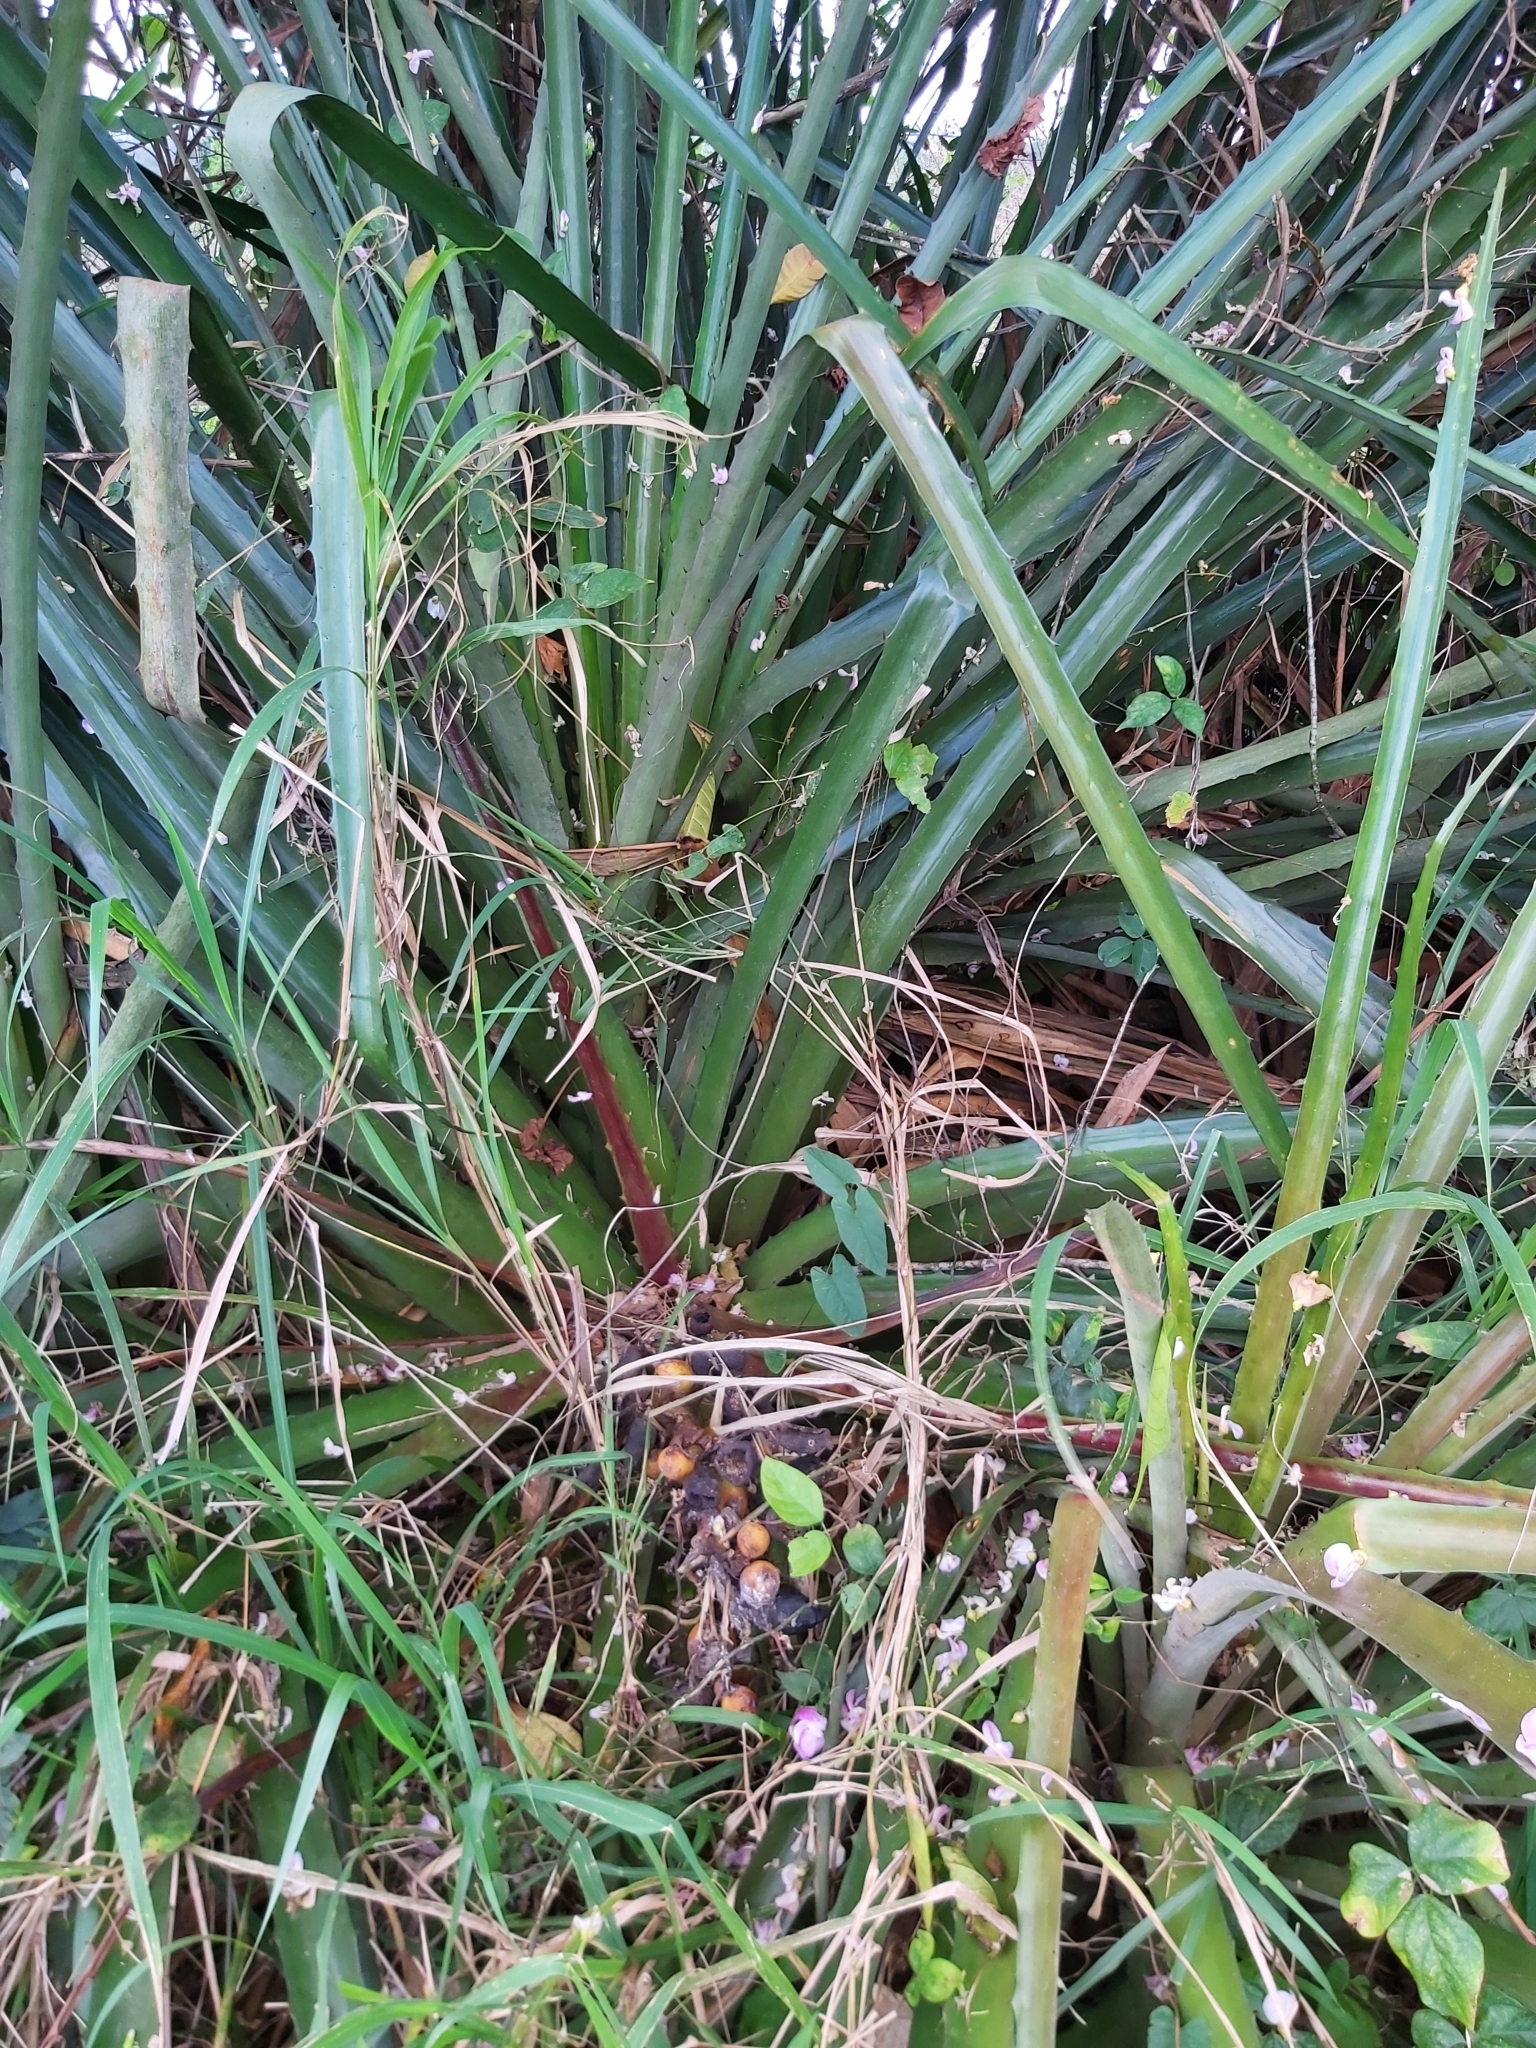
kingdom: Plantae
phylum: Tracheophyta
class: Liliopsida
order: Poales
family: Bromeliaceae
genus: Bromelia
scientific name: Bromelia pinguin
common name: Pinguin
